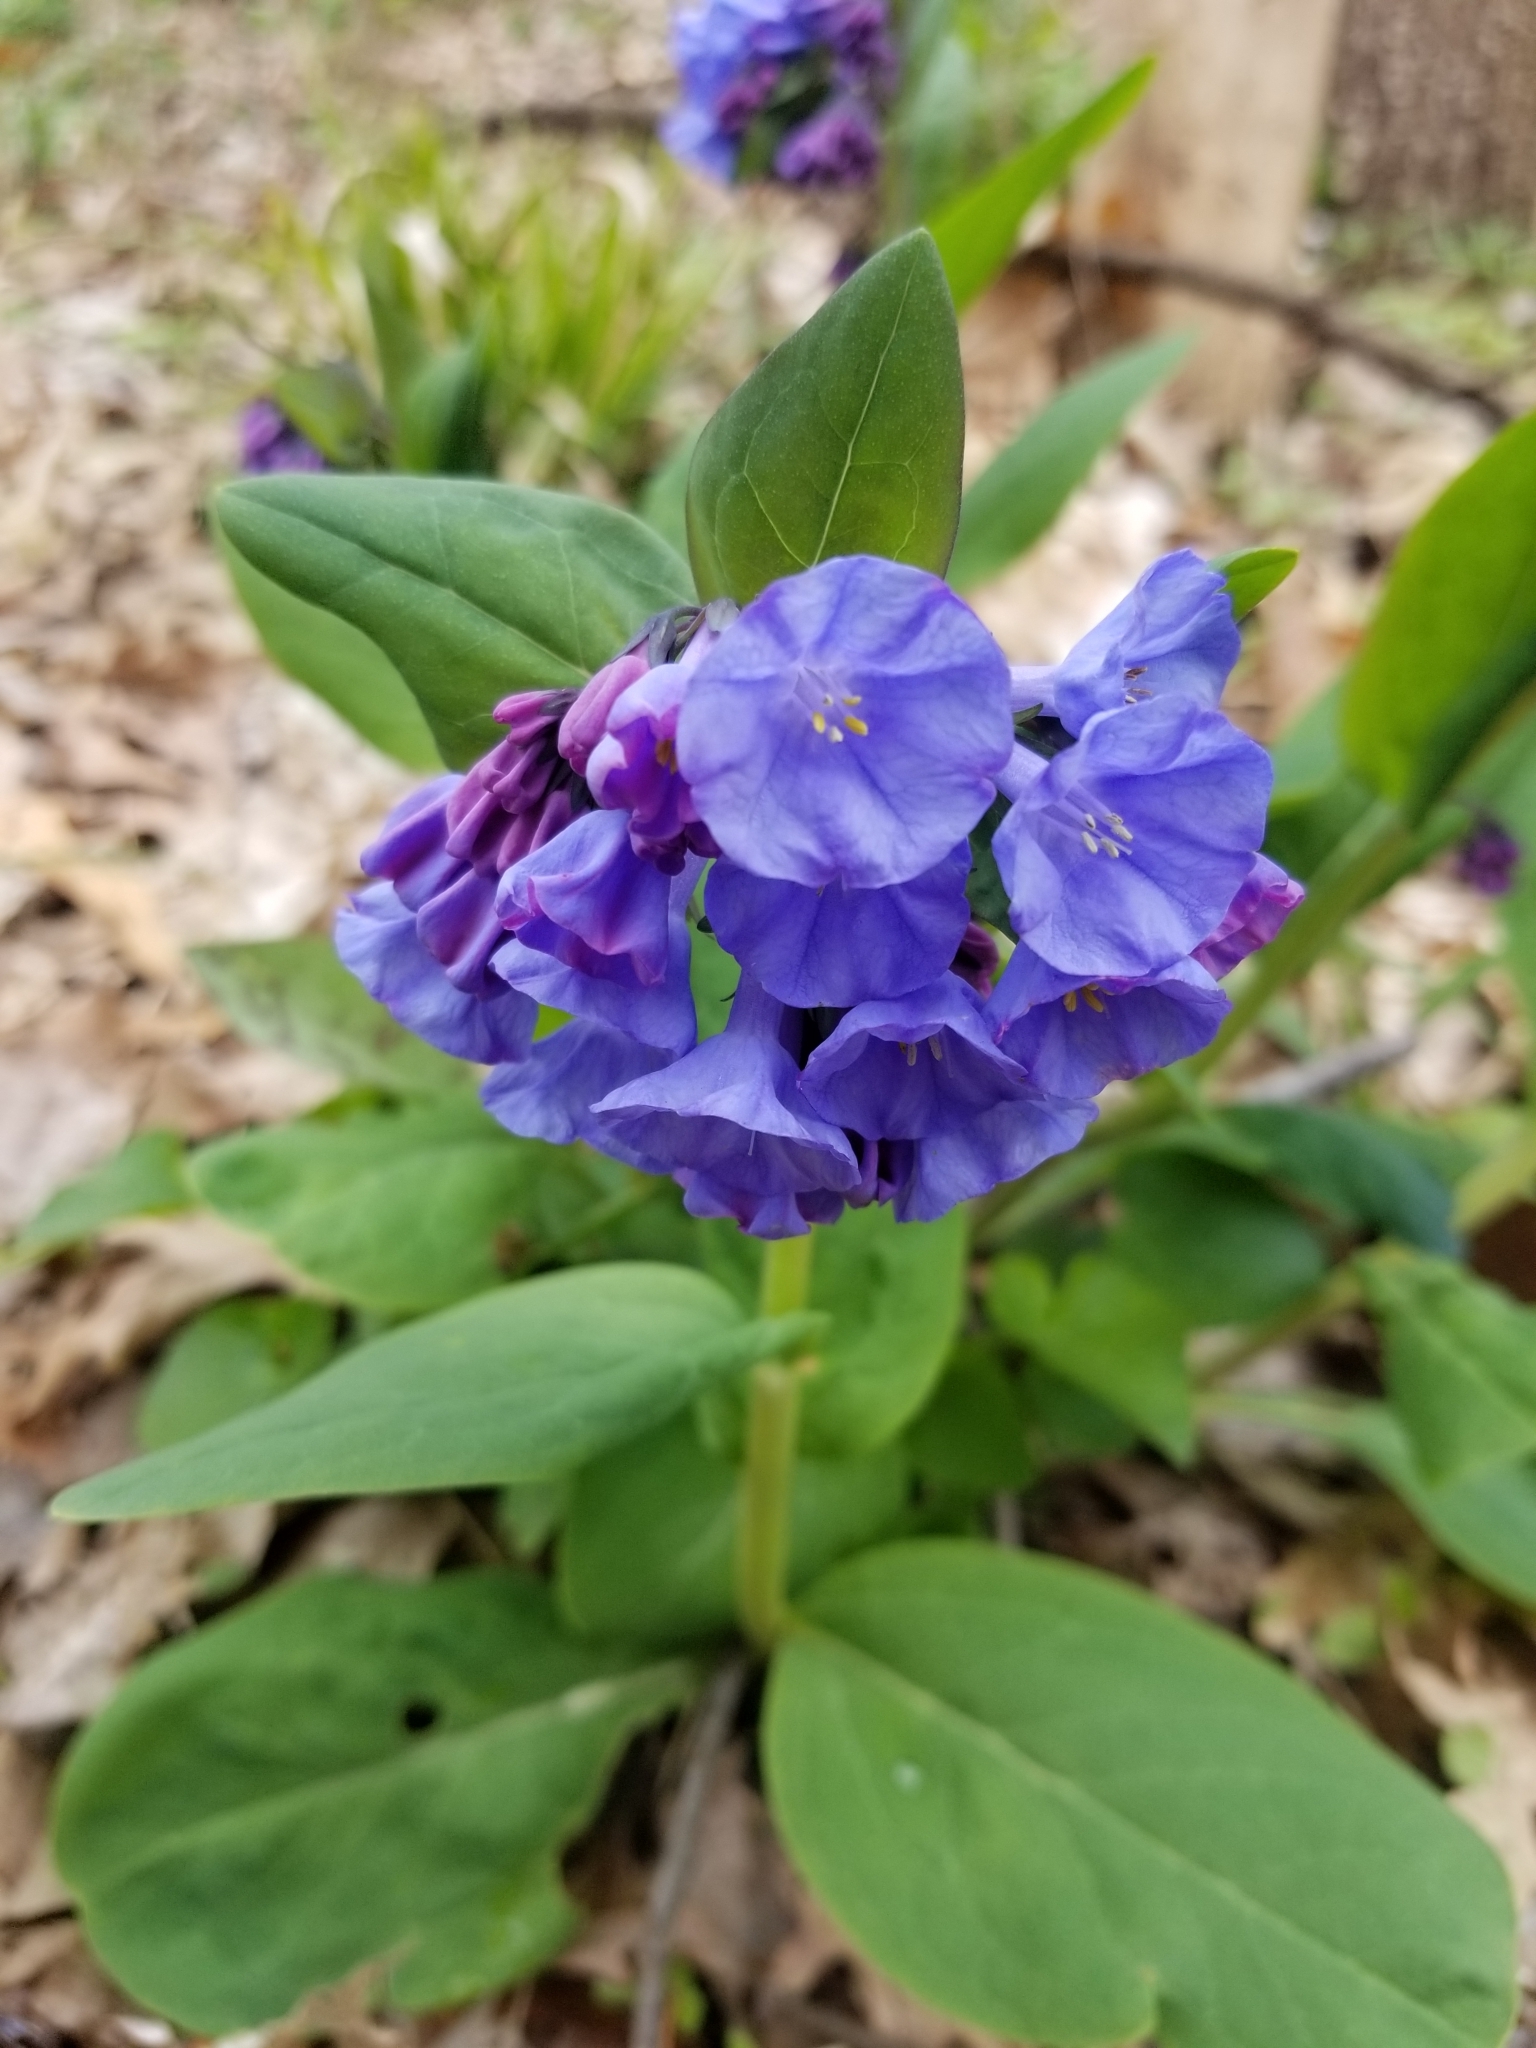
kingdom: Plantae
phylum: Tracheophyta
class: Magnoliopsida
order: Boraginales
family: Boraginaceae
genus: Mertensia
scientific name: Mertensia virginica
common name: Virginia bluebells
